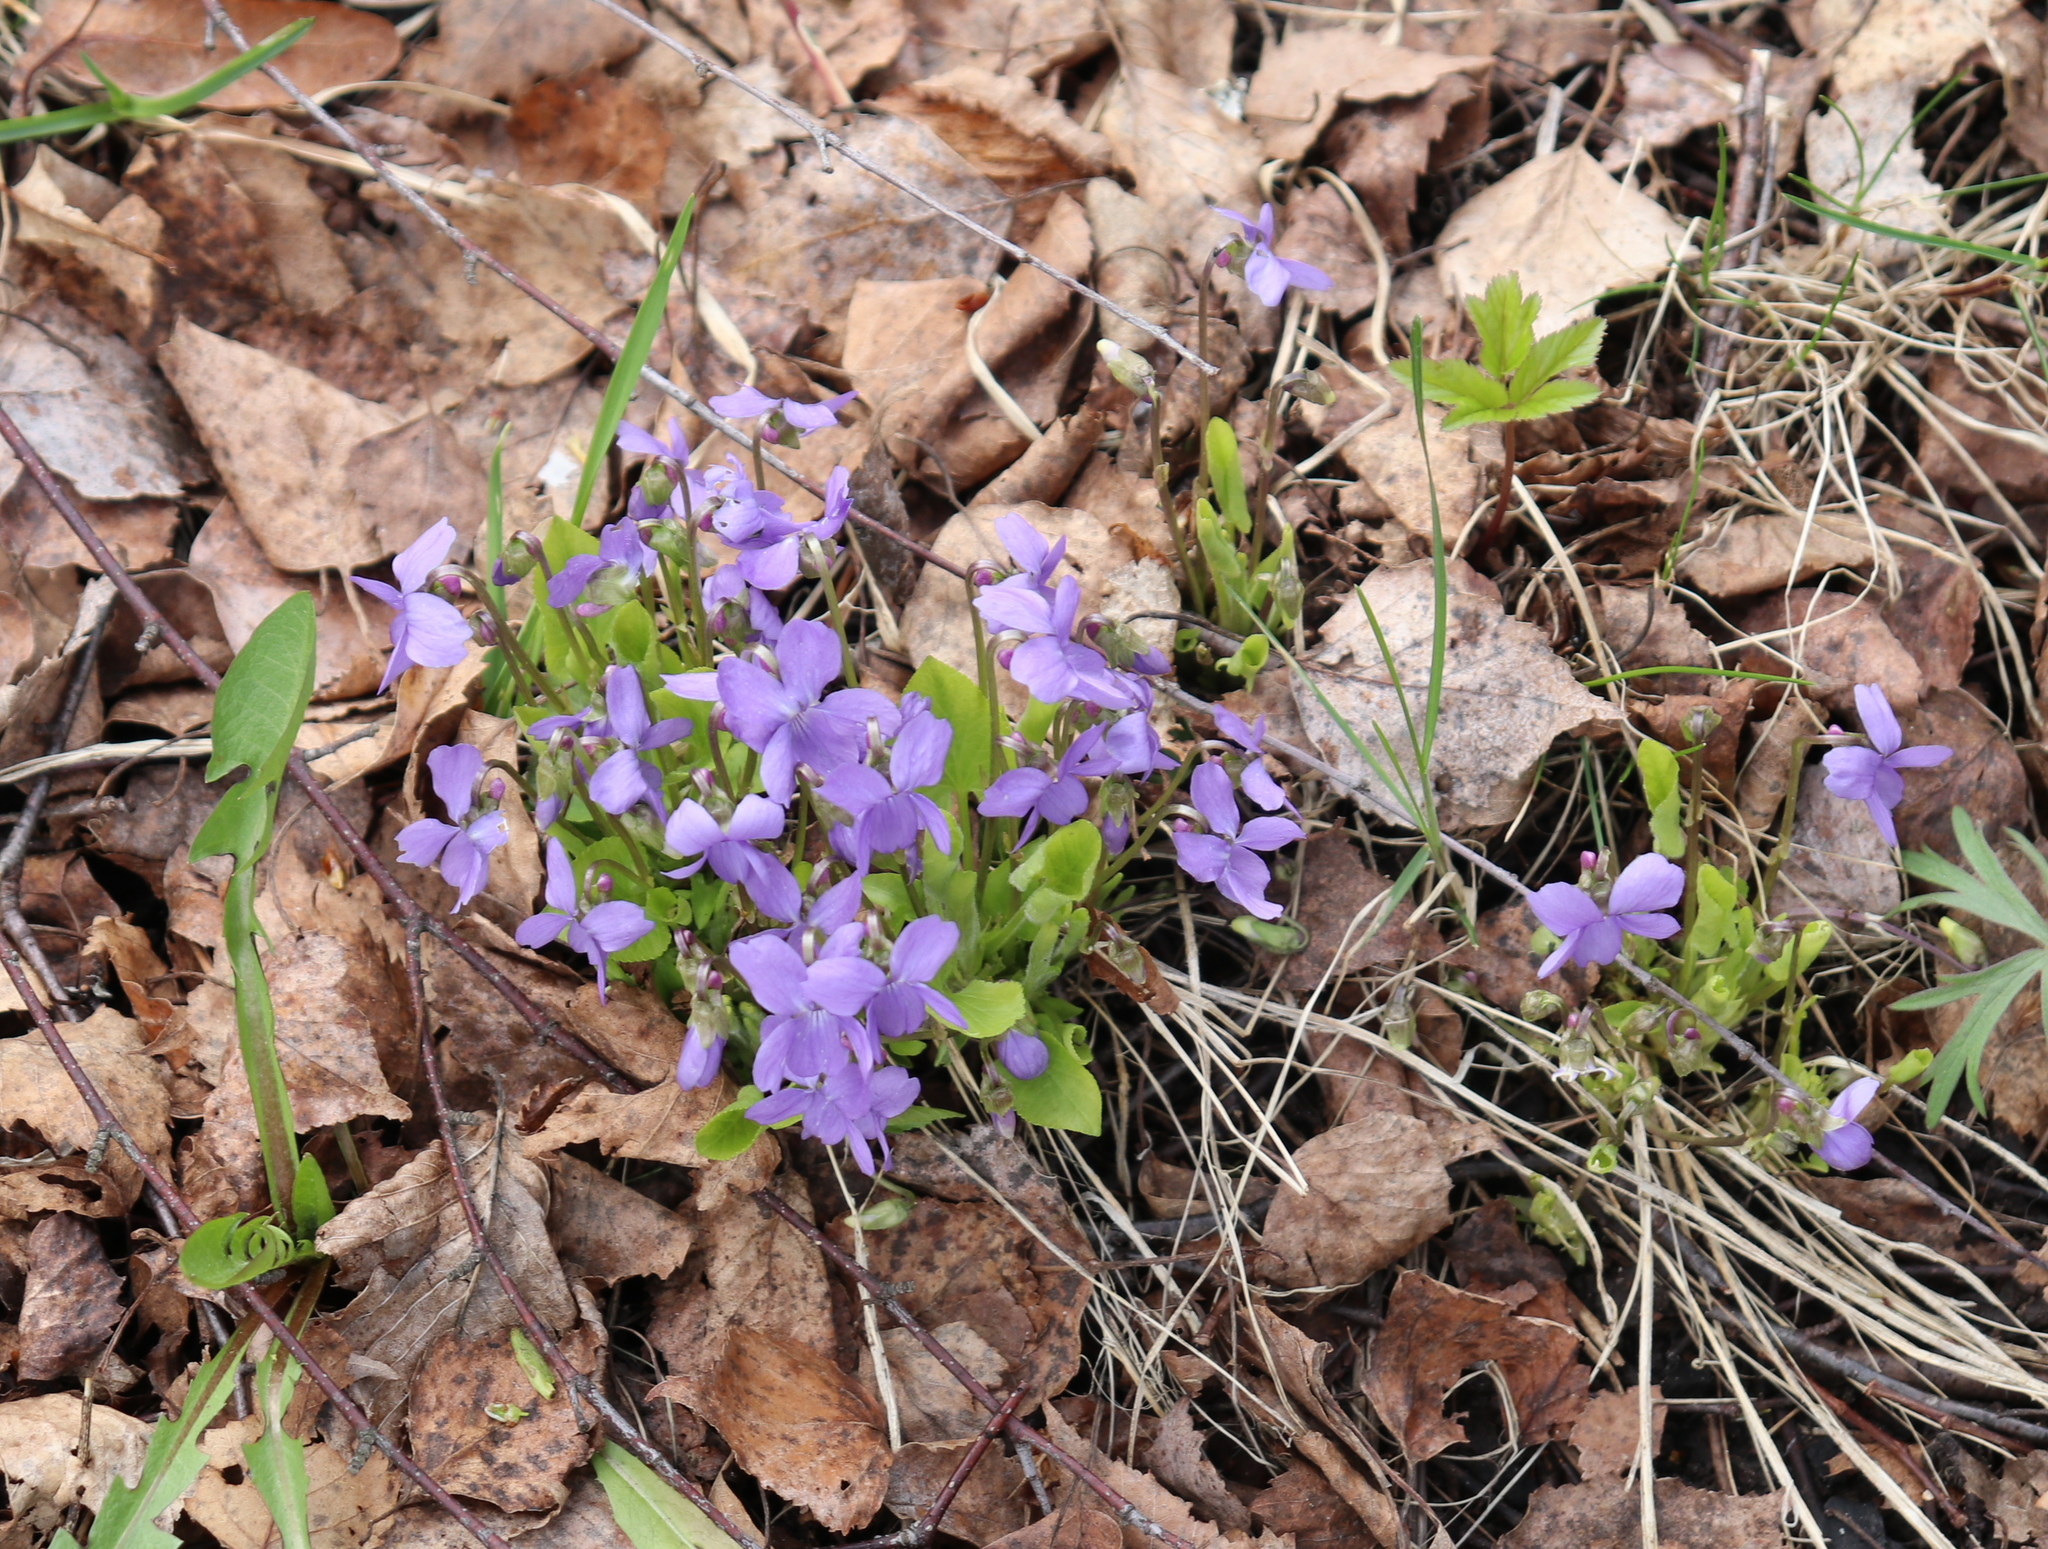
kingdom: Plantae
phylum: Tracheophyta
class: Magnoliopsida
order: Malpighiales
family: Violaceae
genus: Viola
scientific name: Viola hirta
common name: Hairy violet
